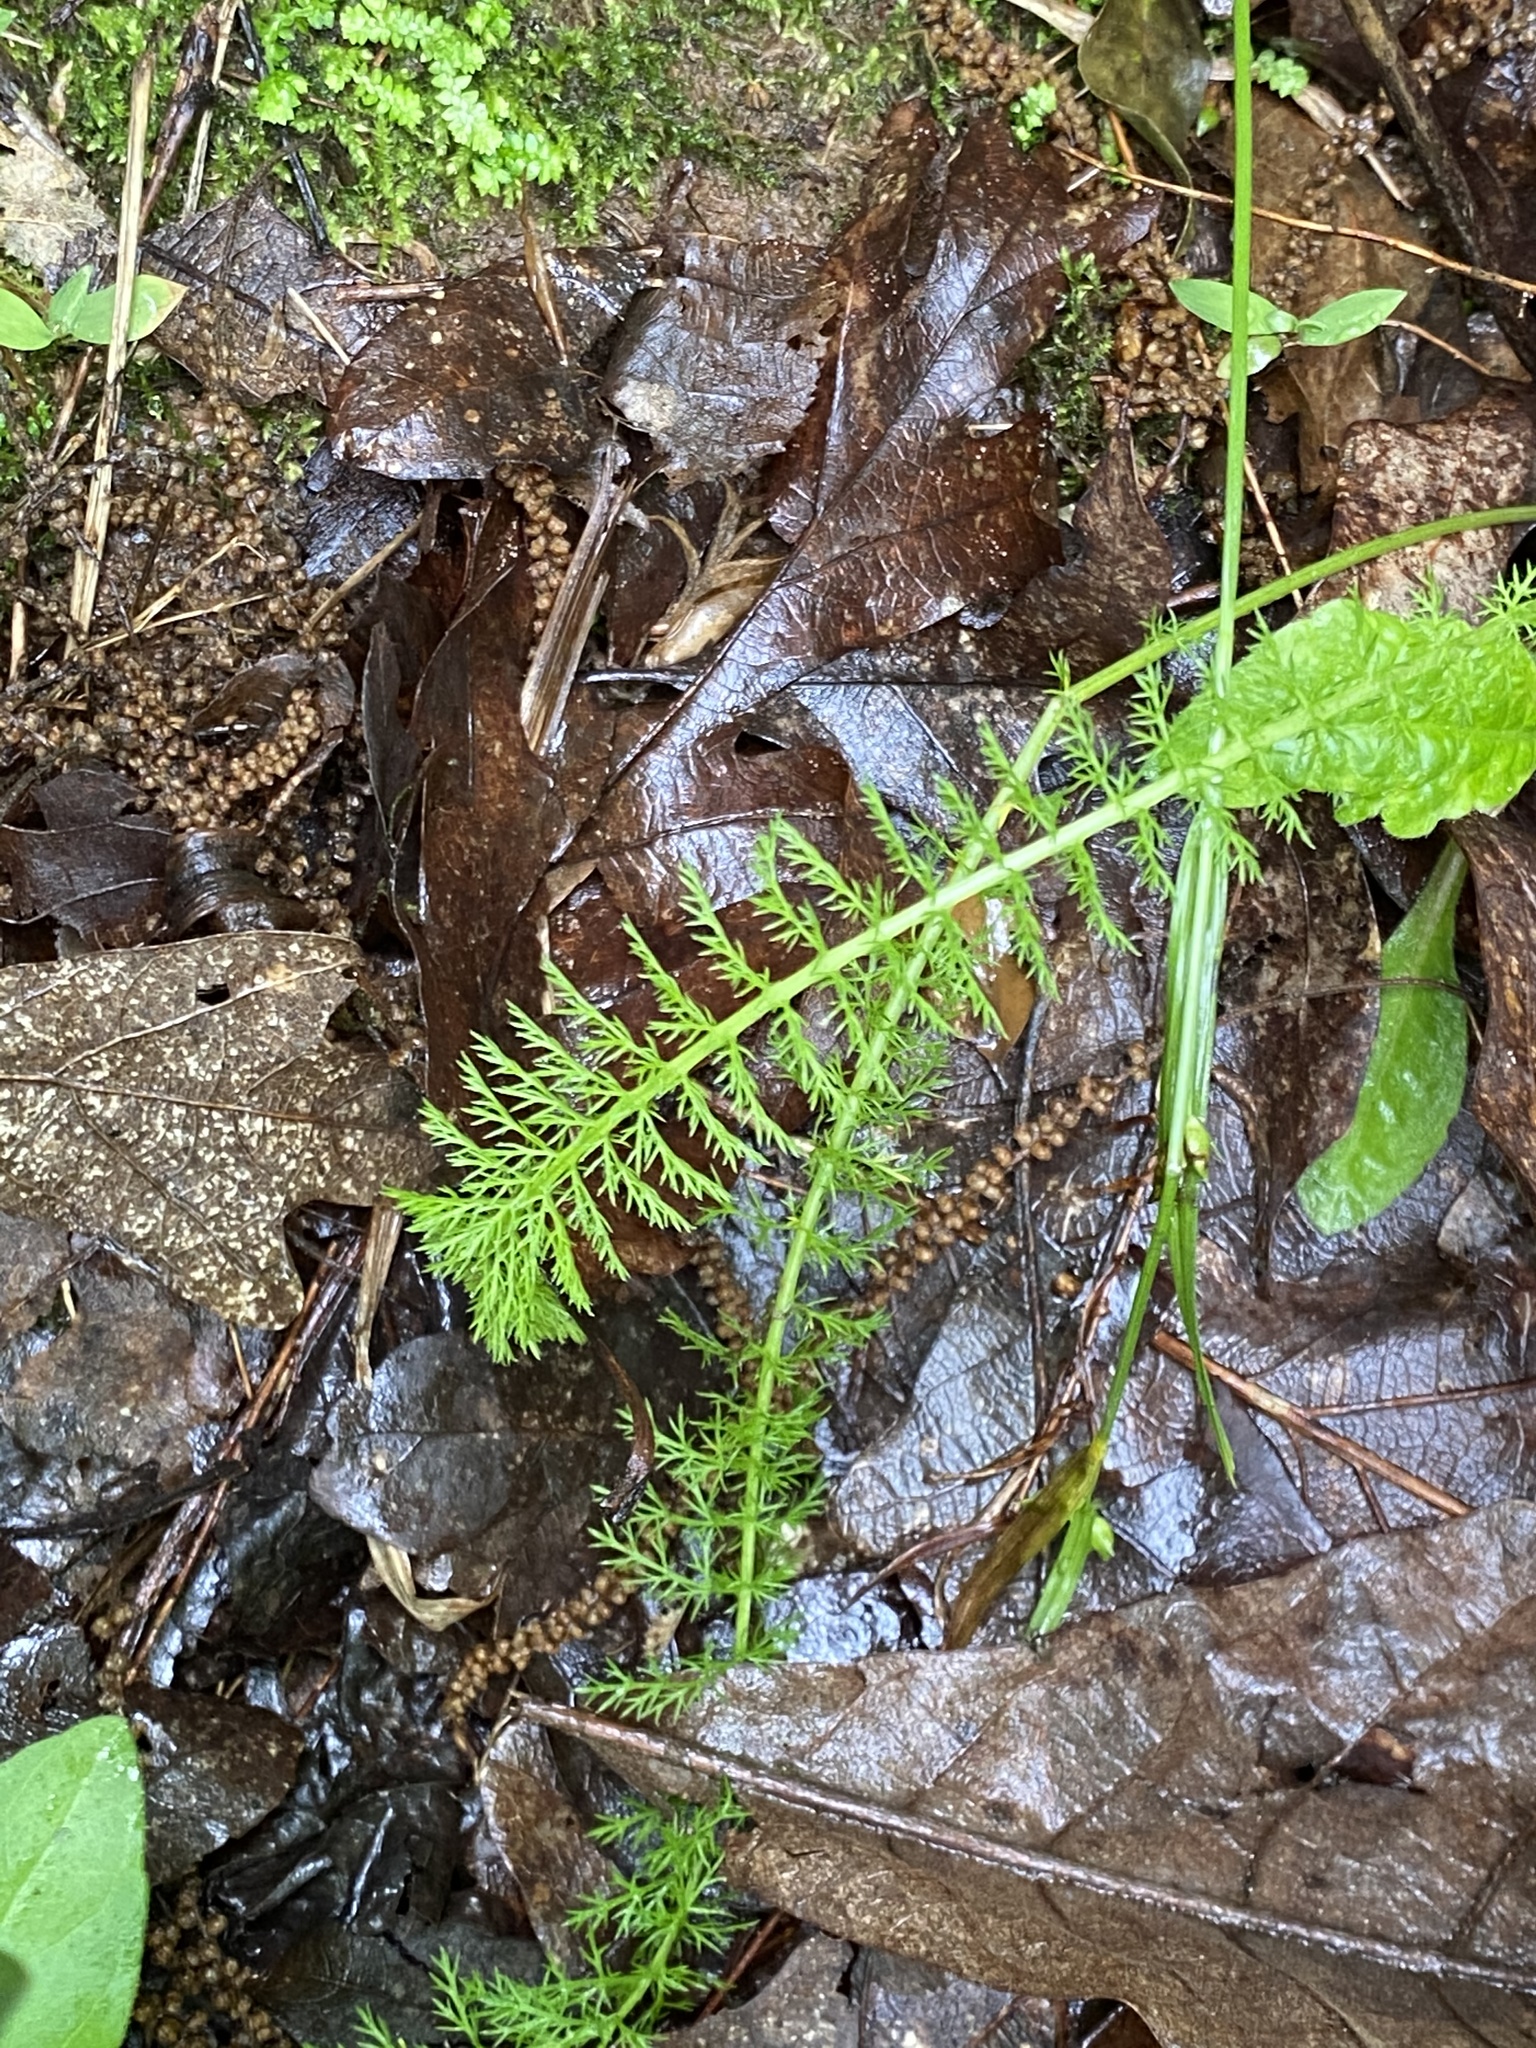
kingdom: Plantae
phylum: Tracheophyta
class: Magnoliopsida
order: Asterales
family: Asteraceae
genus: Achillea
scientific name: Achillea millefolium
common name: Yarrow
